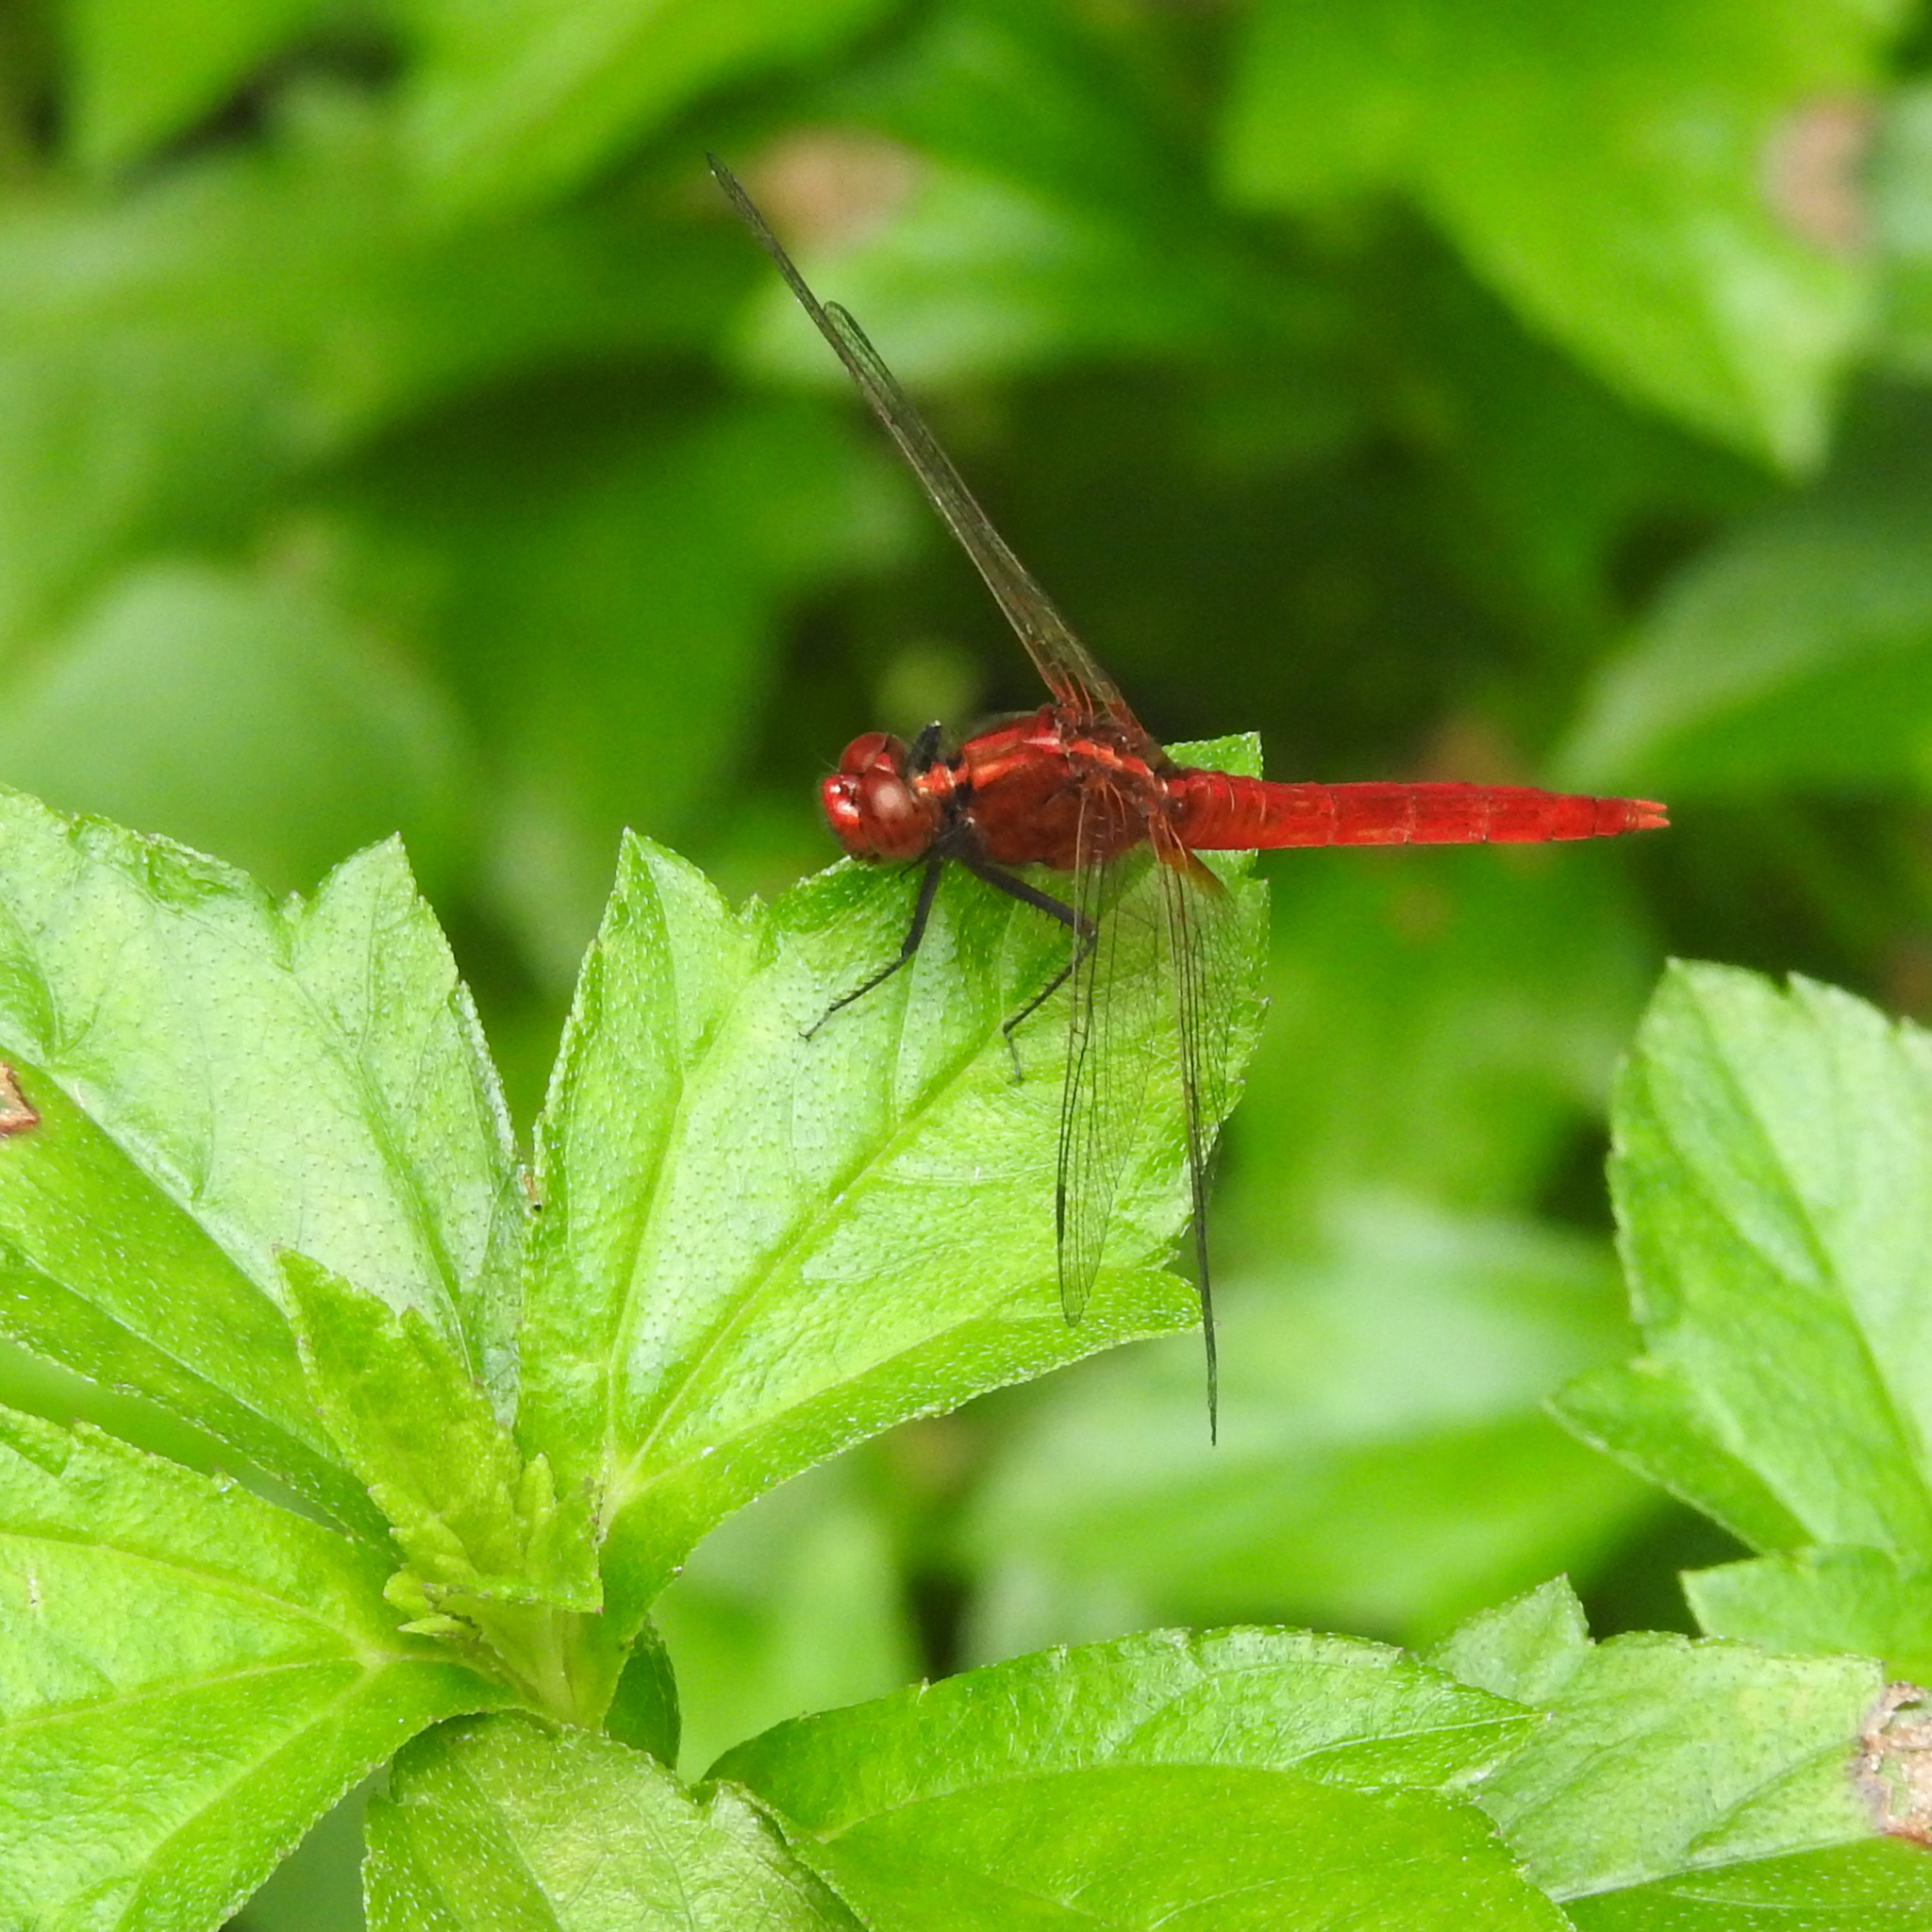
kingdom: Animalia
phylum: Arthropoda
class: Insecta
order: Odonata
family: Libellulidae
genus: Rhodothemis
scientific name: Rhodothemis rufa
